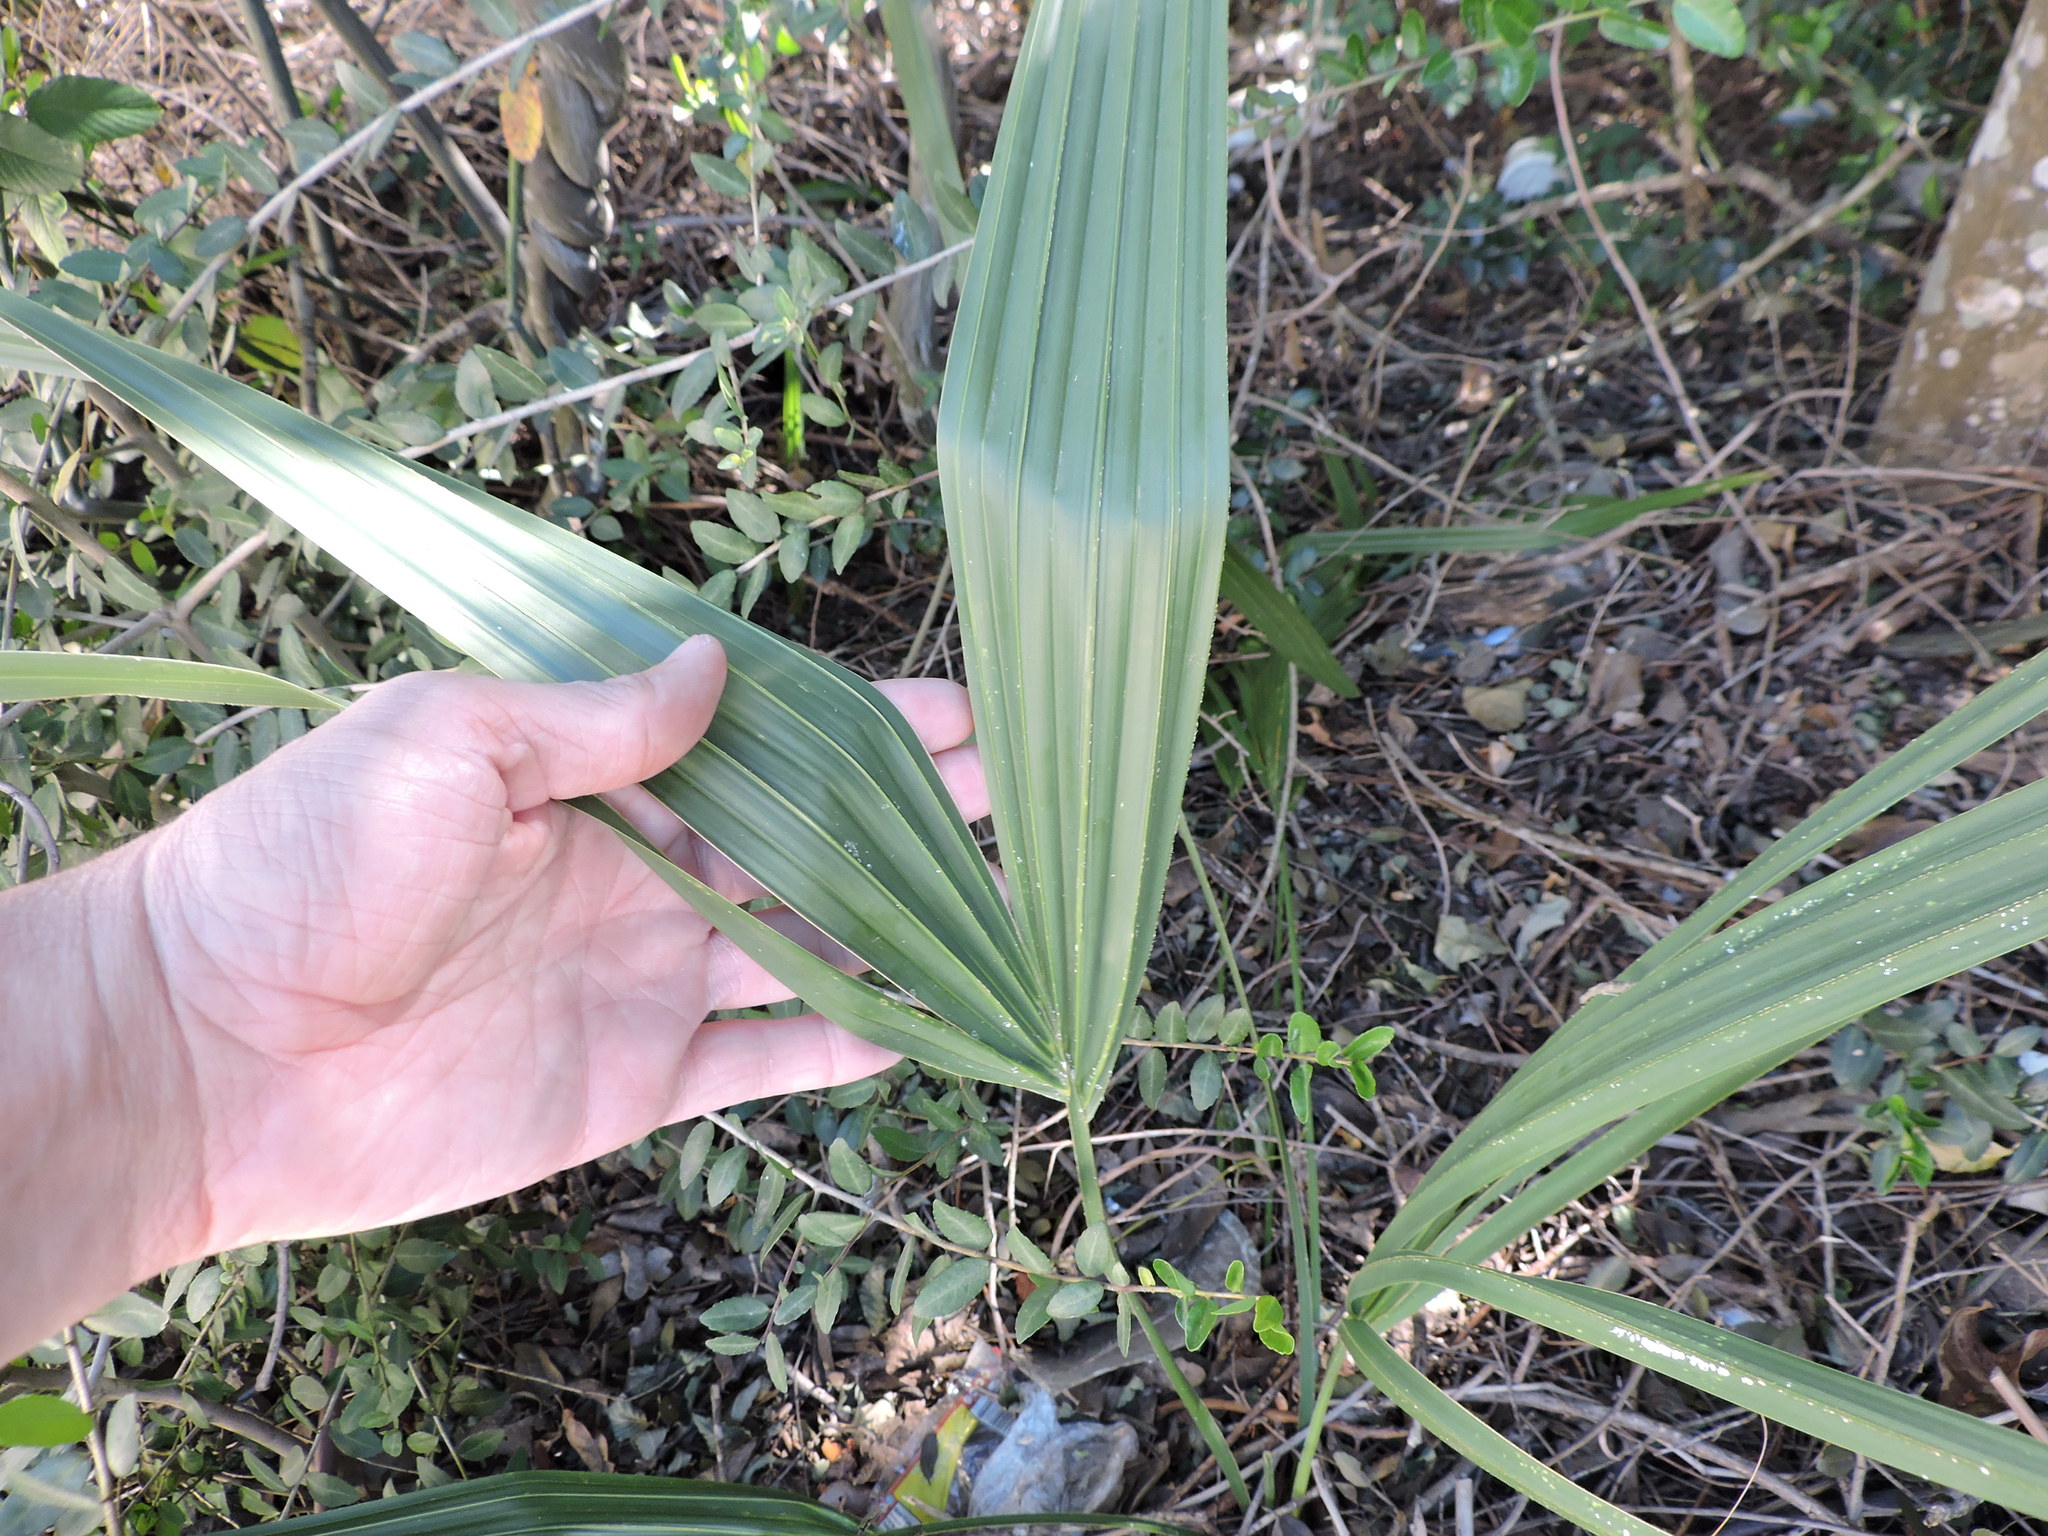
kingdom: Plantae
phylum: Tracheophyta
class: Liliopsida
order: Arecales
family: Arecaceae
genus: Sabal
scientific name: Sabal minor
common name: Dwarf palmetto
